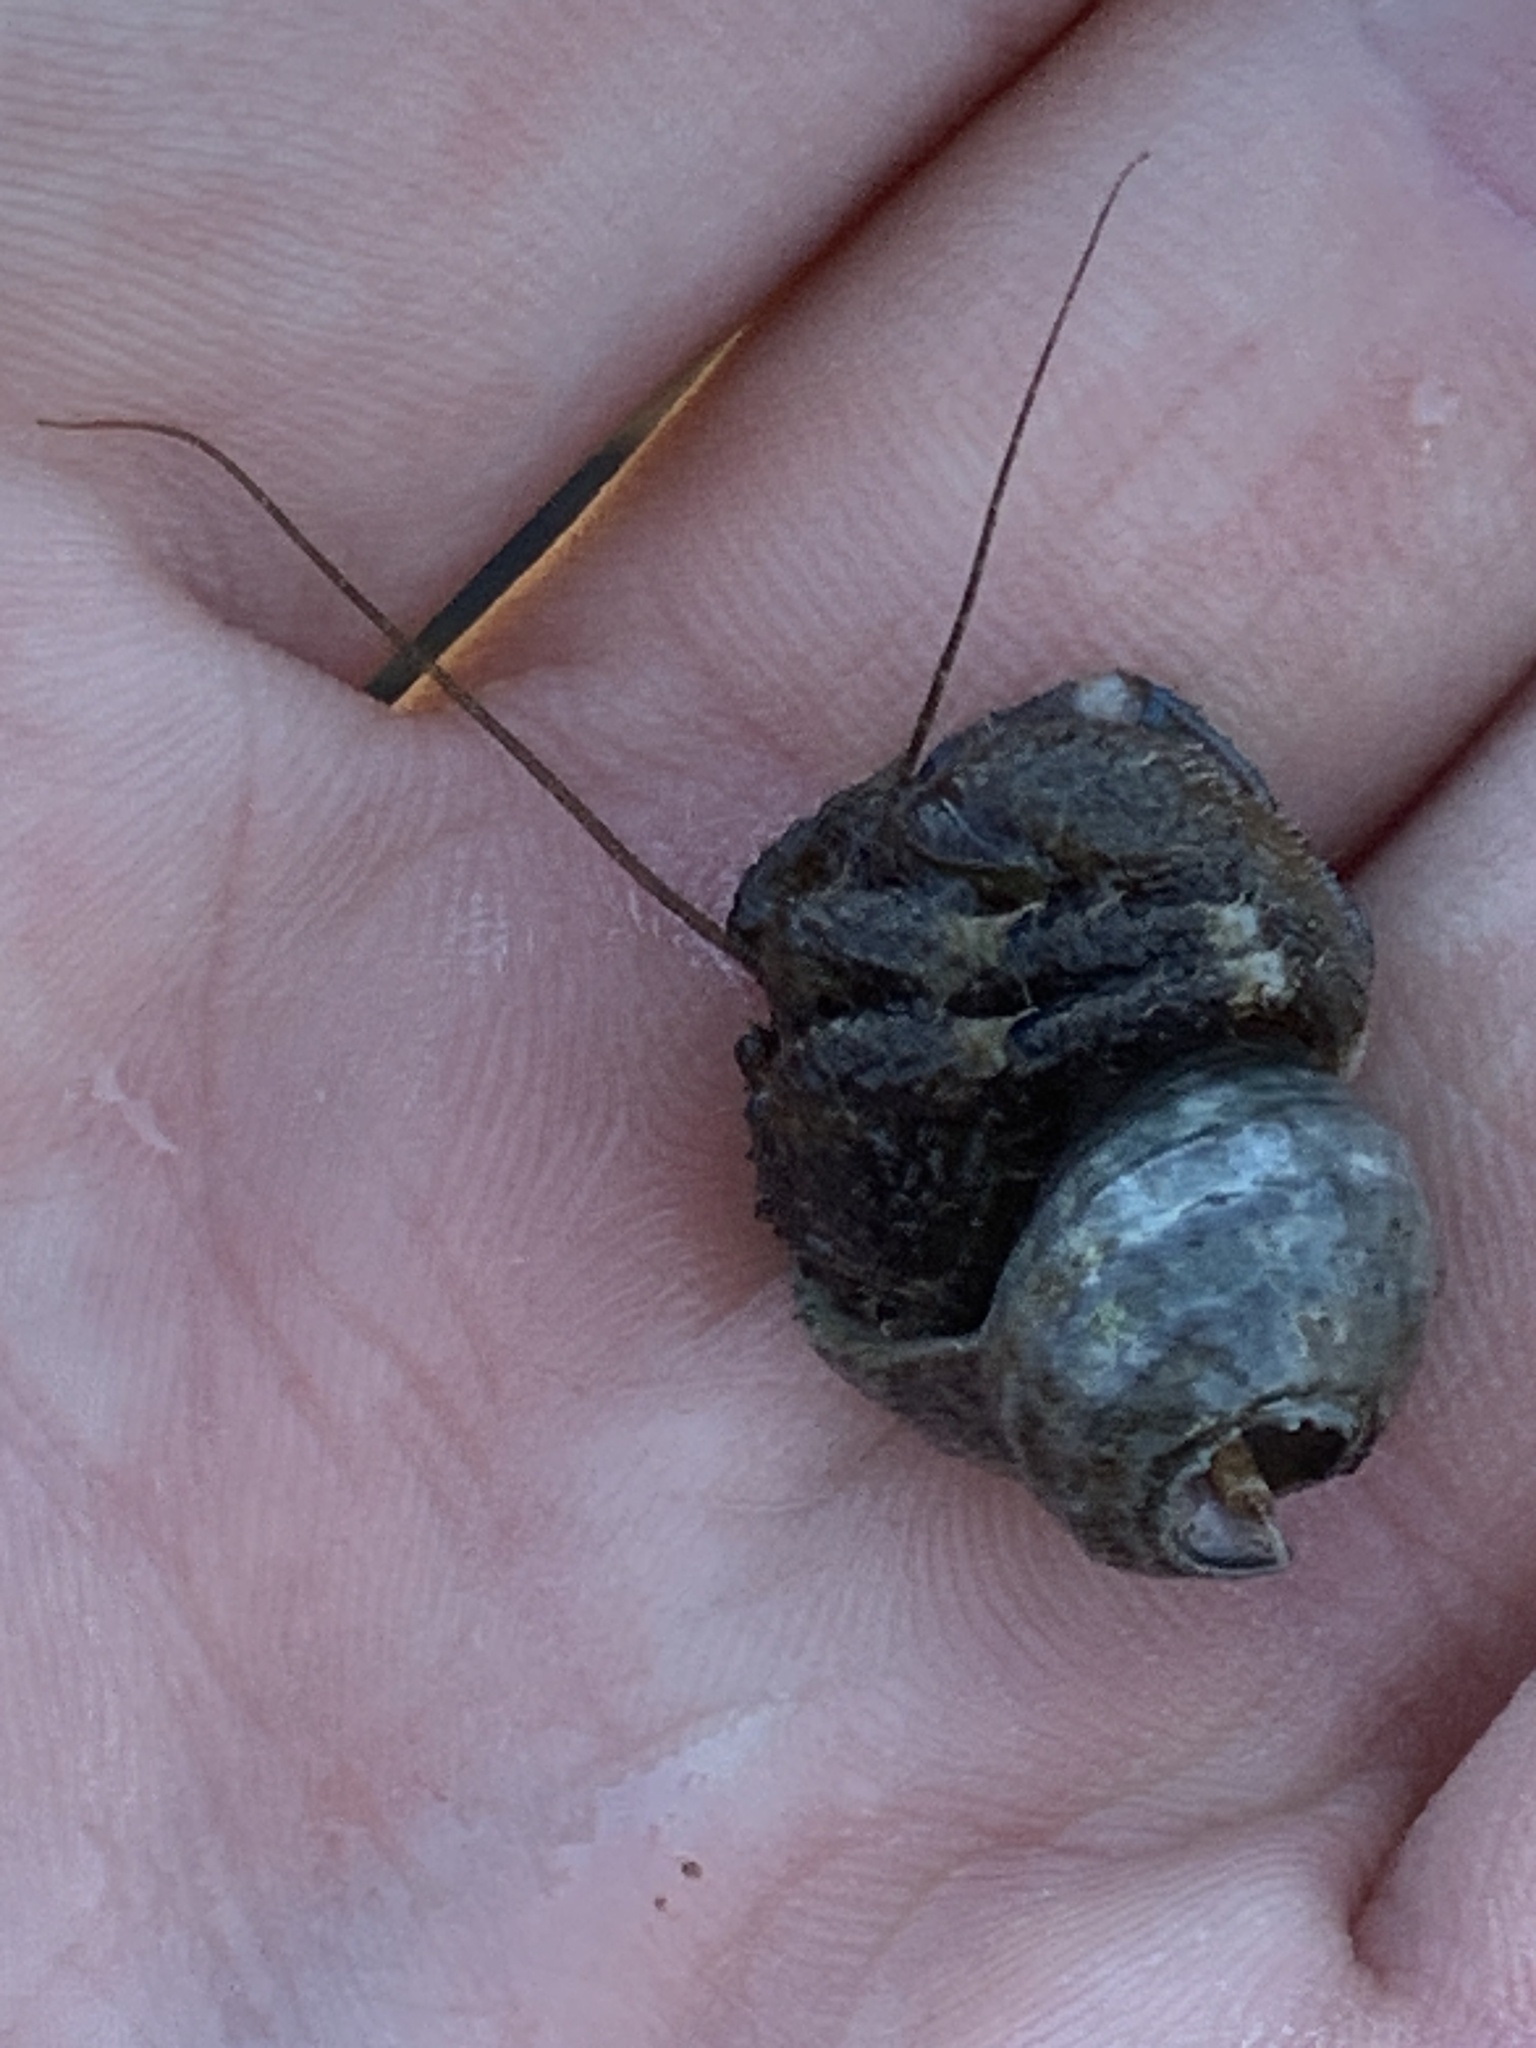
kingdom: Animalia
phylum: Arthropoda
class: Malacostraca
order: Decapoda
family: Paguridae
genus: Pagurus
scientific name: Pagurus hirsutiusculus
